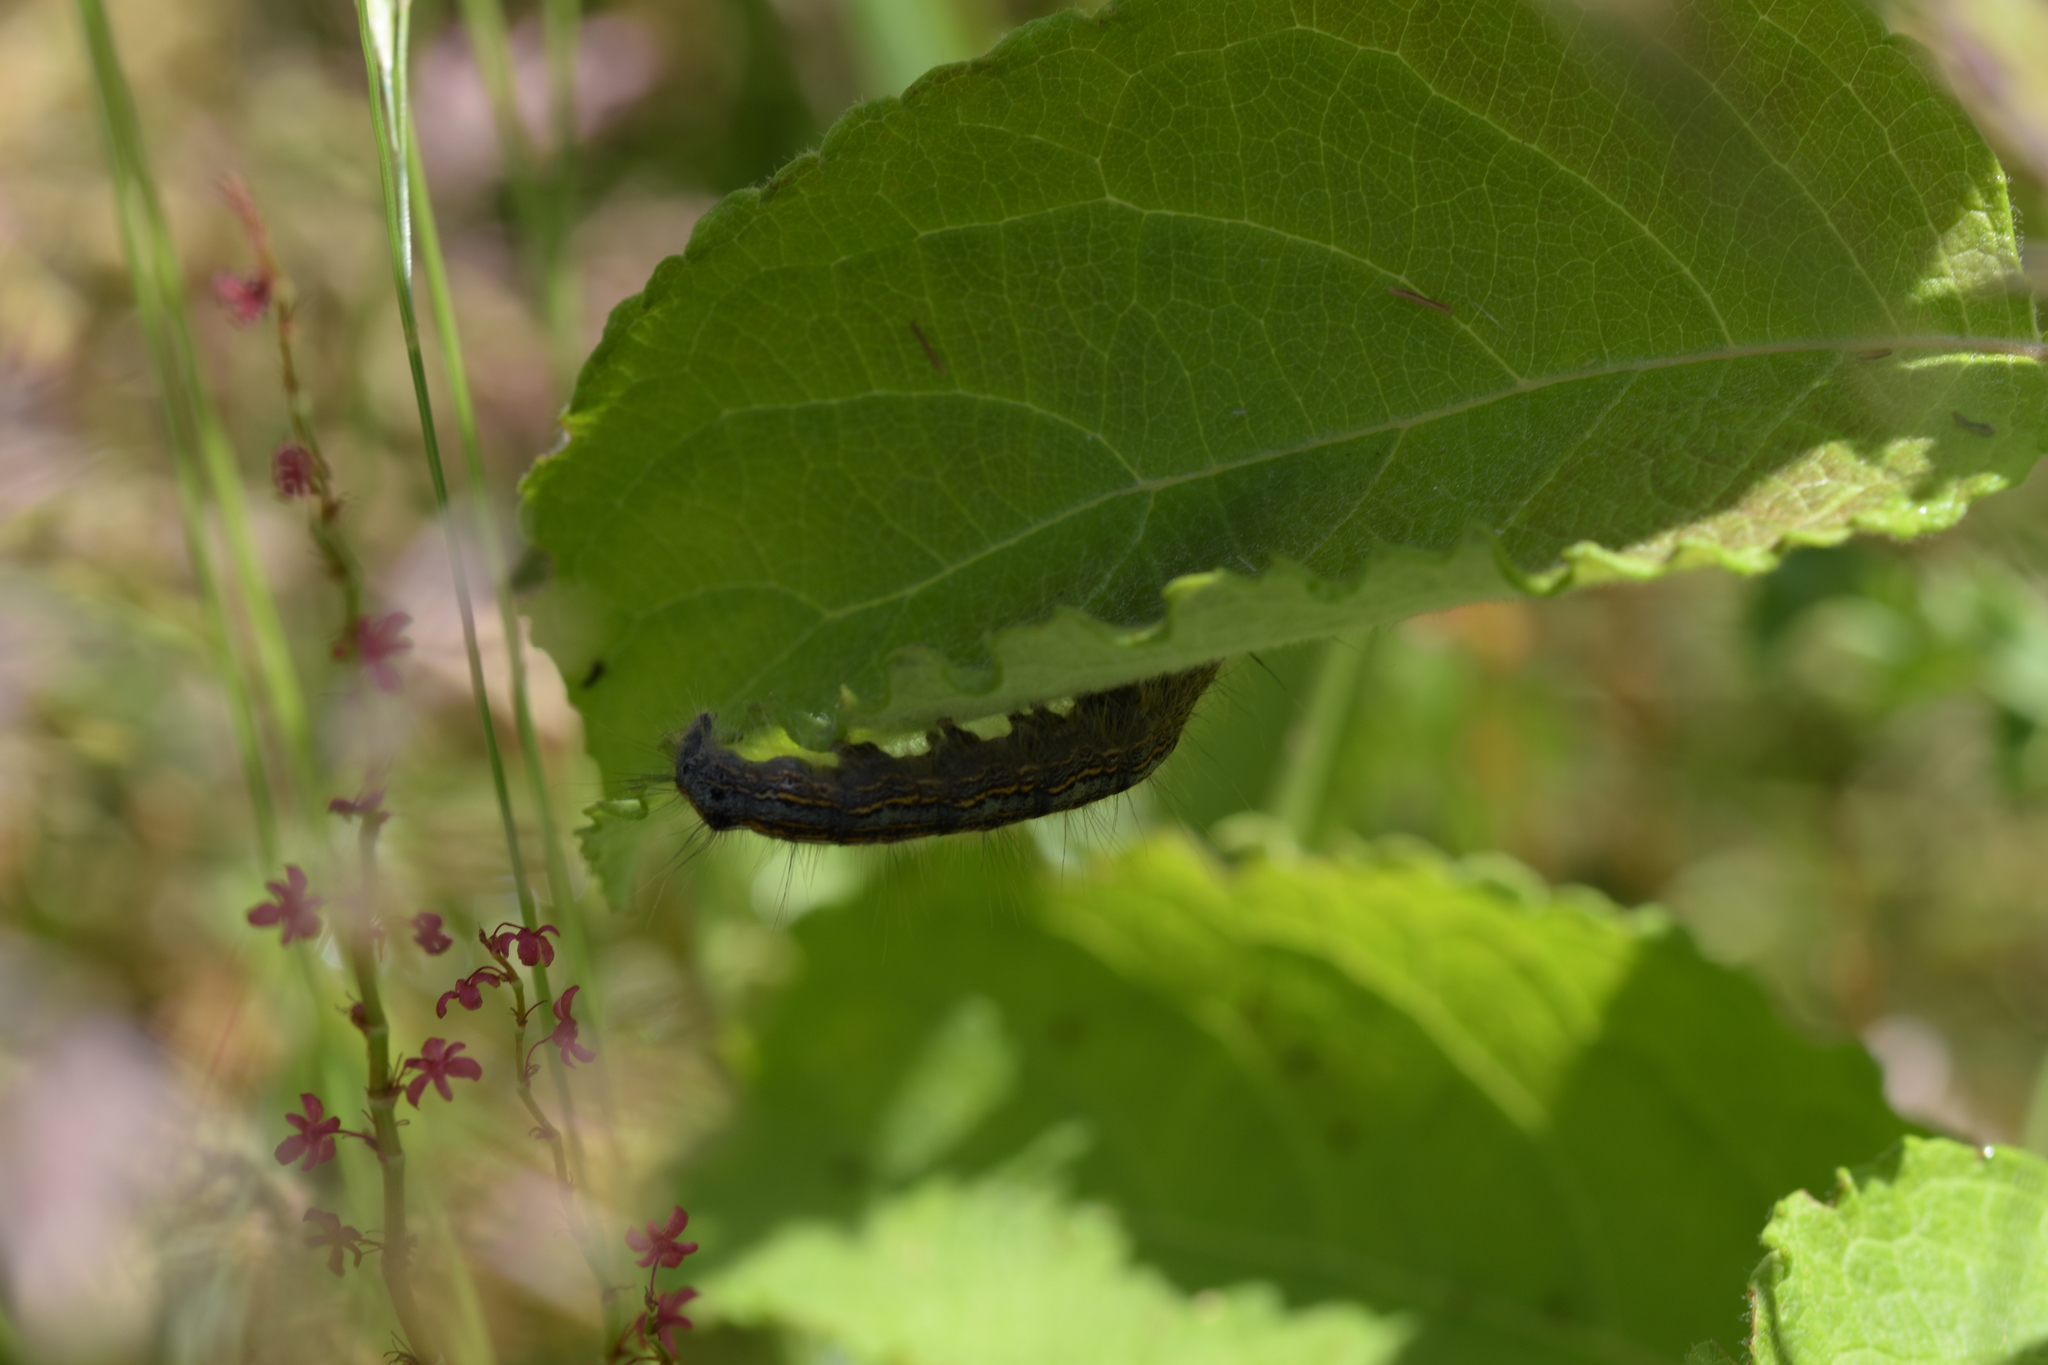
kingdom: Animalia
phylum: Arthropoda
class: Insecta
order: Lepidoptera
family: Lasiocampidae
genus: Malacosoma
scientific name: Malacosoma neustria
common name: The lackey
